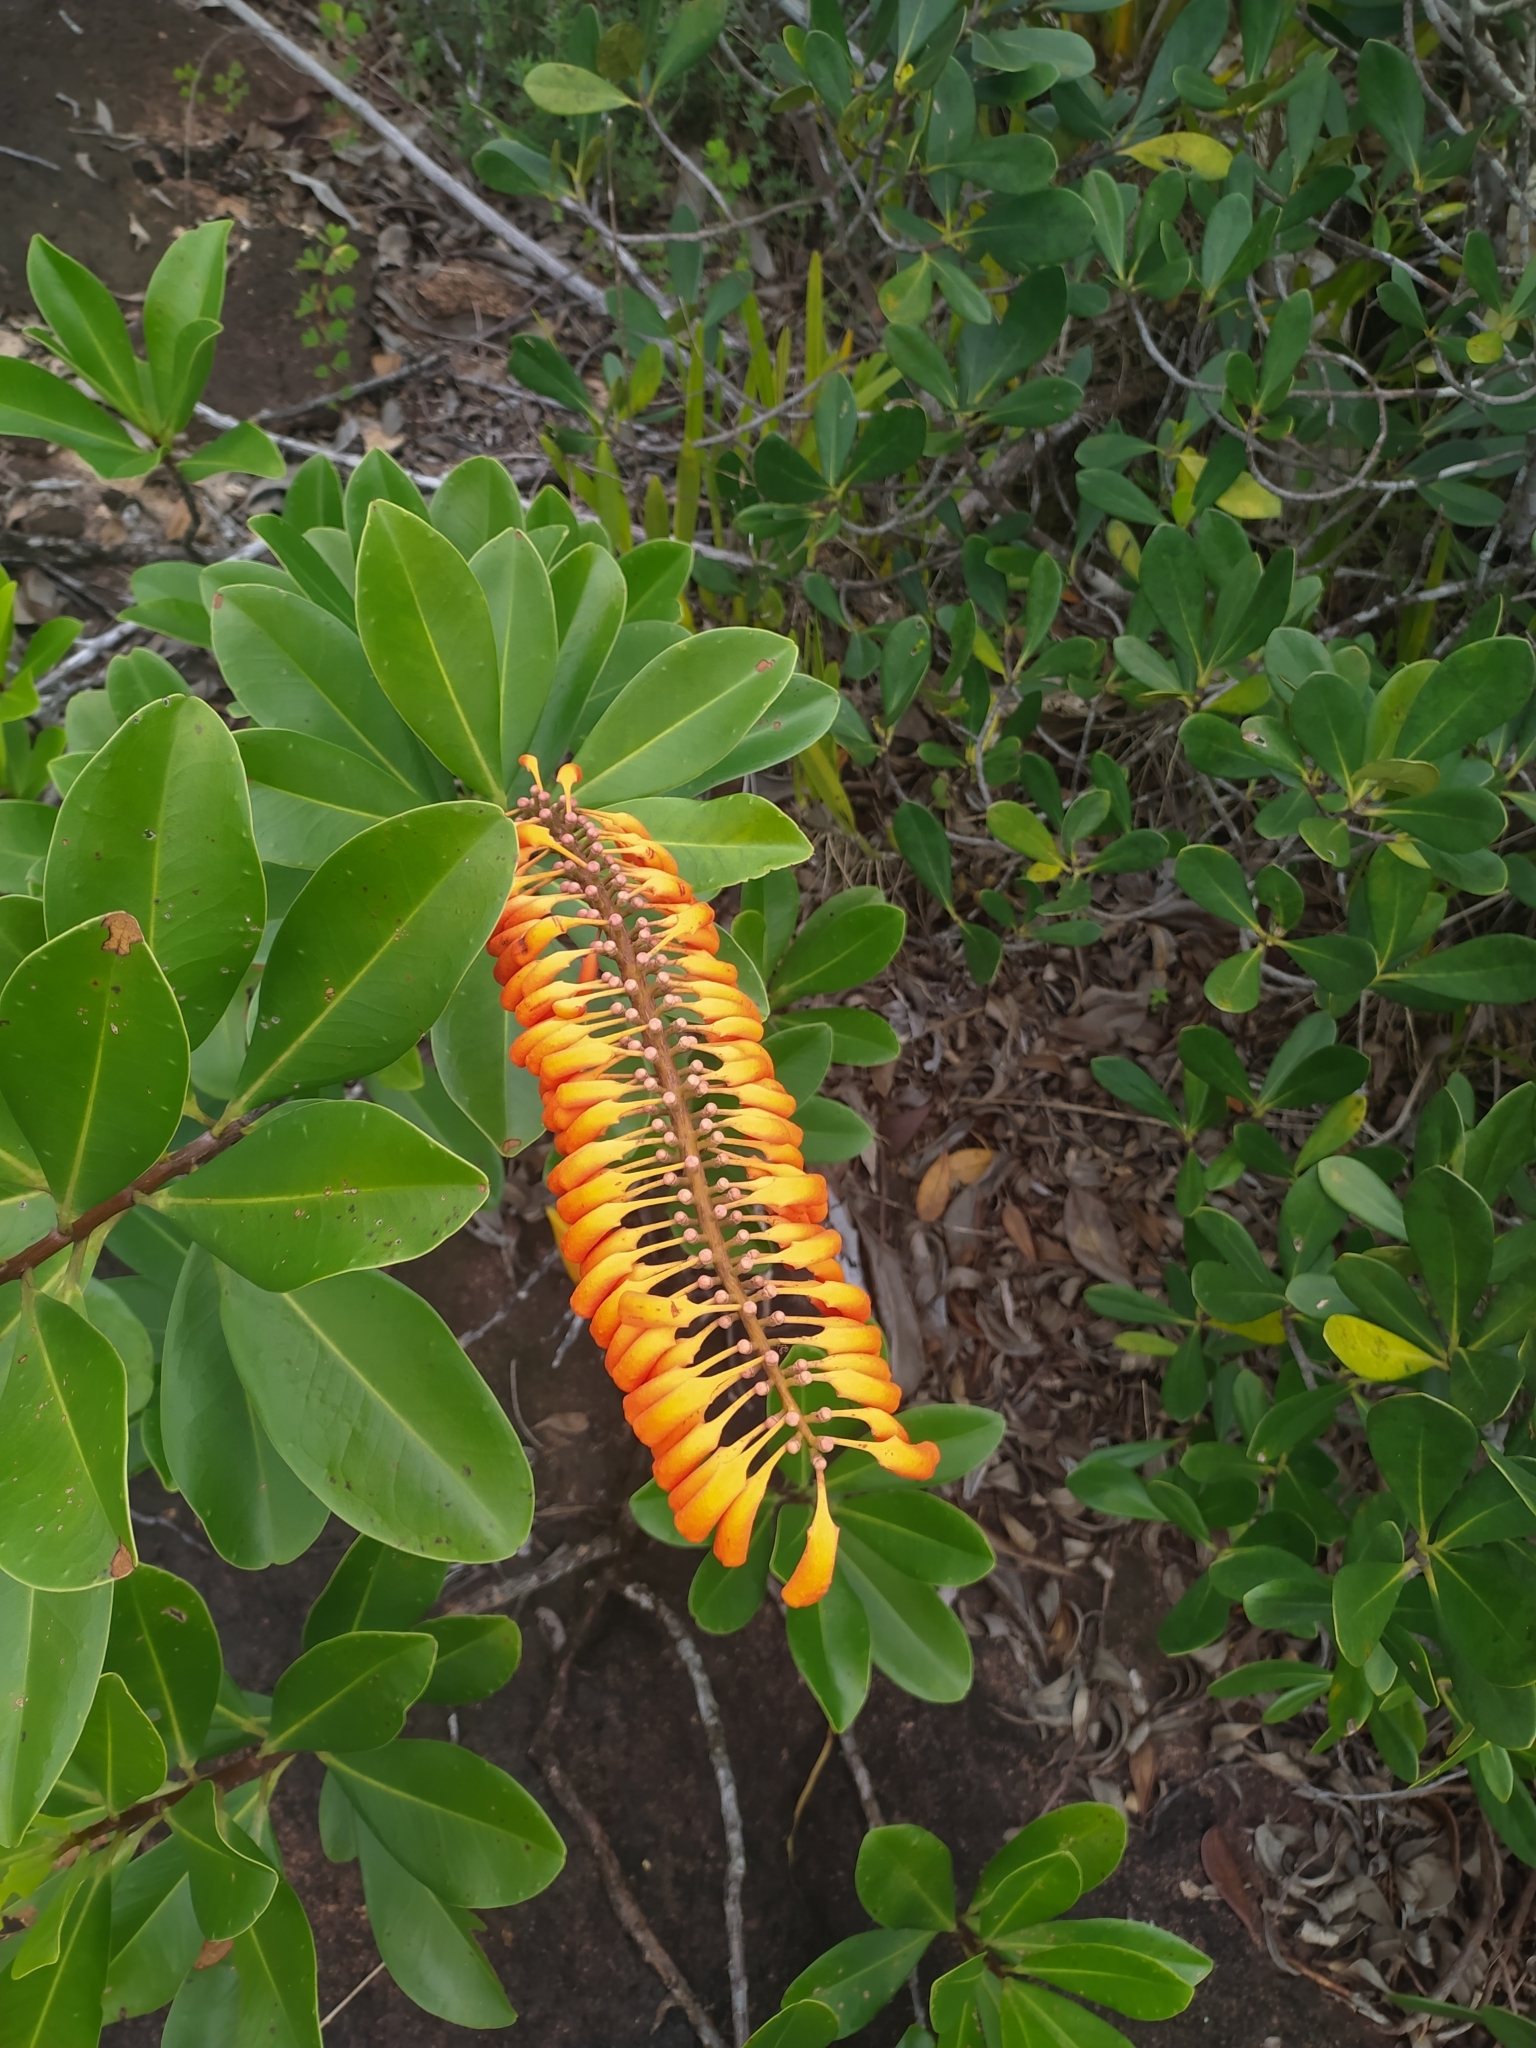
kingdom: Plantae
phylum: Tracheophyta
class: Magnoliopsida
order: Ericales
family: Marcgraviaceae
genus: Norantea
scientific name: Norantea guianensis
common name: Red hot poker vine
